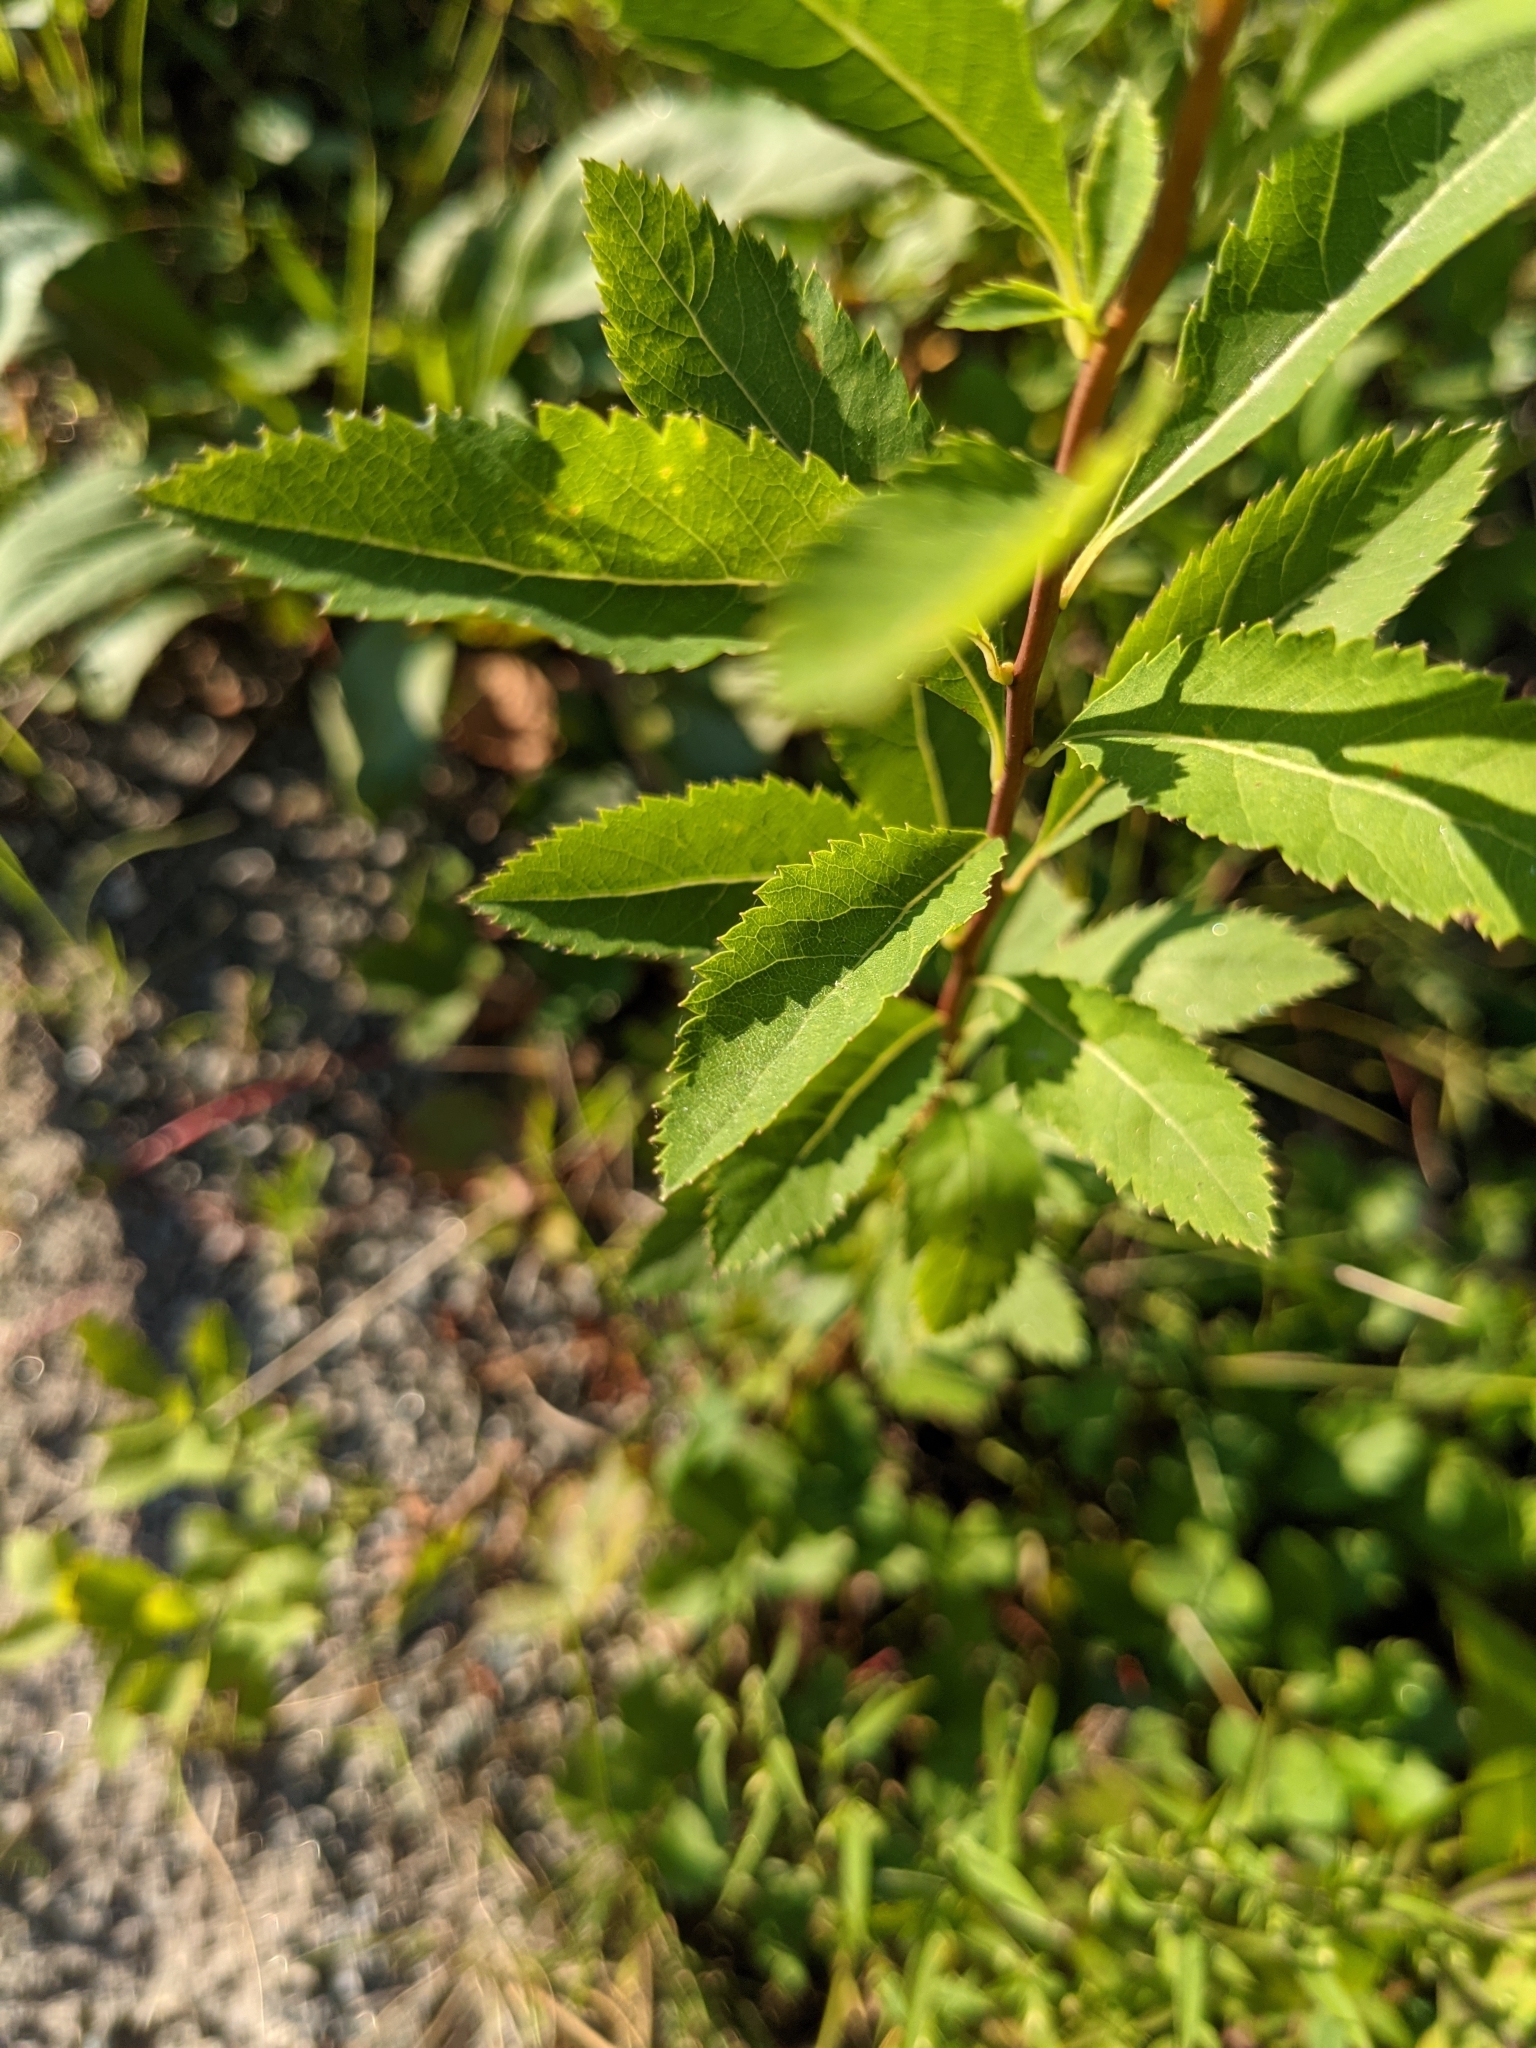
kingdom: Plantae
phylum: Tracheophyta
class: Magnoliopsida
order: Rosales
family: Rosaceae
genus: Spiraea
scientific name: Spiraea alba
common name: Pale bridewort
